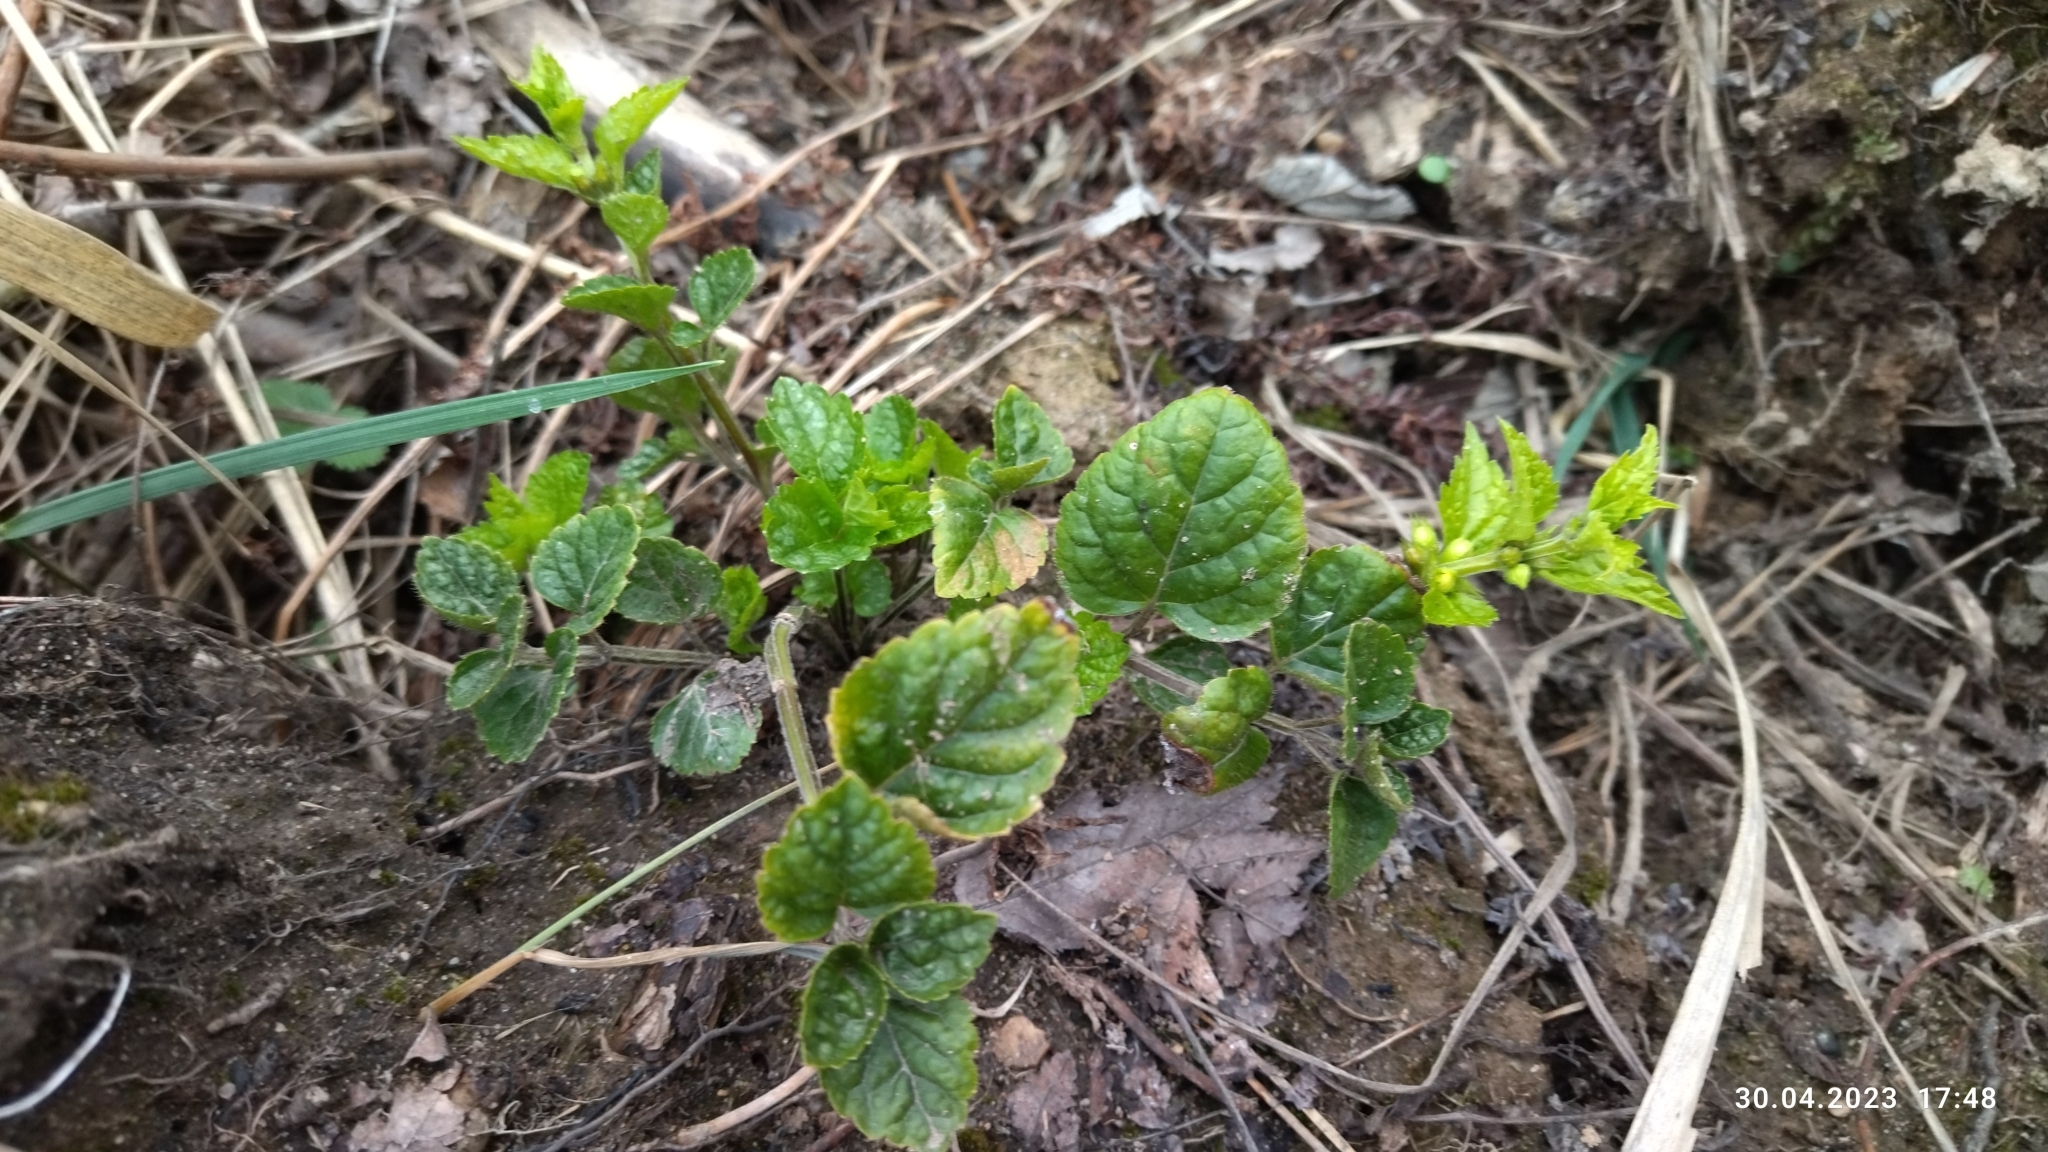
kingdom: Plantae
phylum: Tracheophyta
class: Magnoliopsida
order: Lamiales
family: Lamiaceae
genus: Lamium
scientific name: Lamium galeobdolon
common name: Yellow archangel
